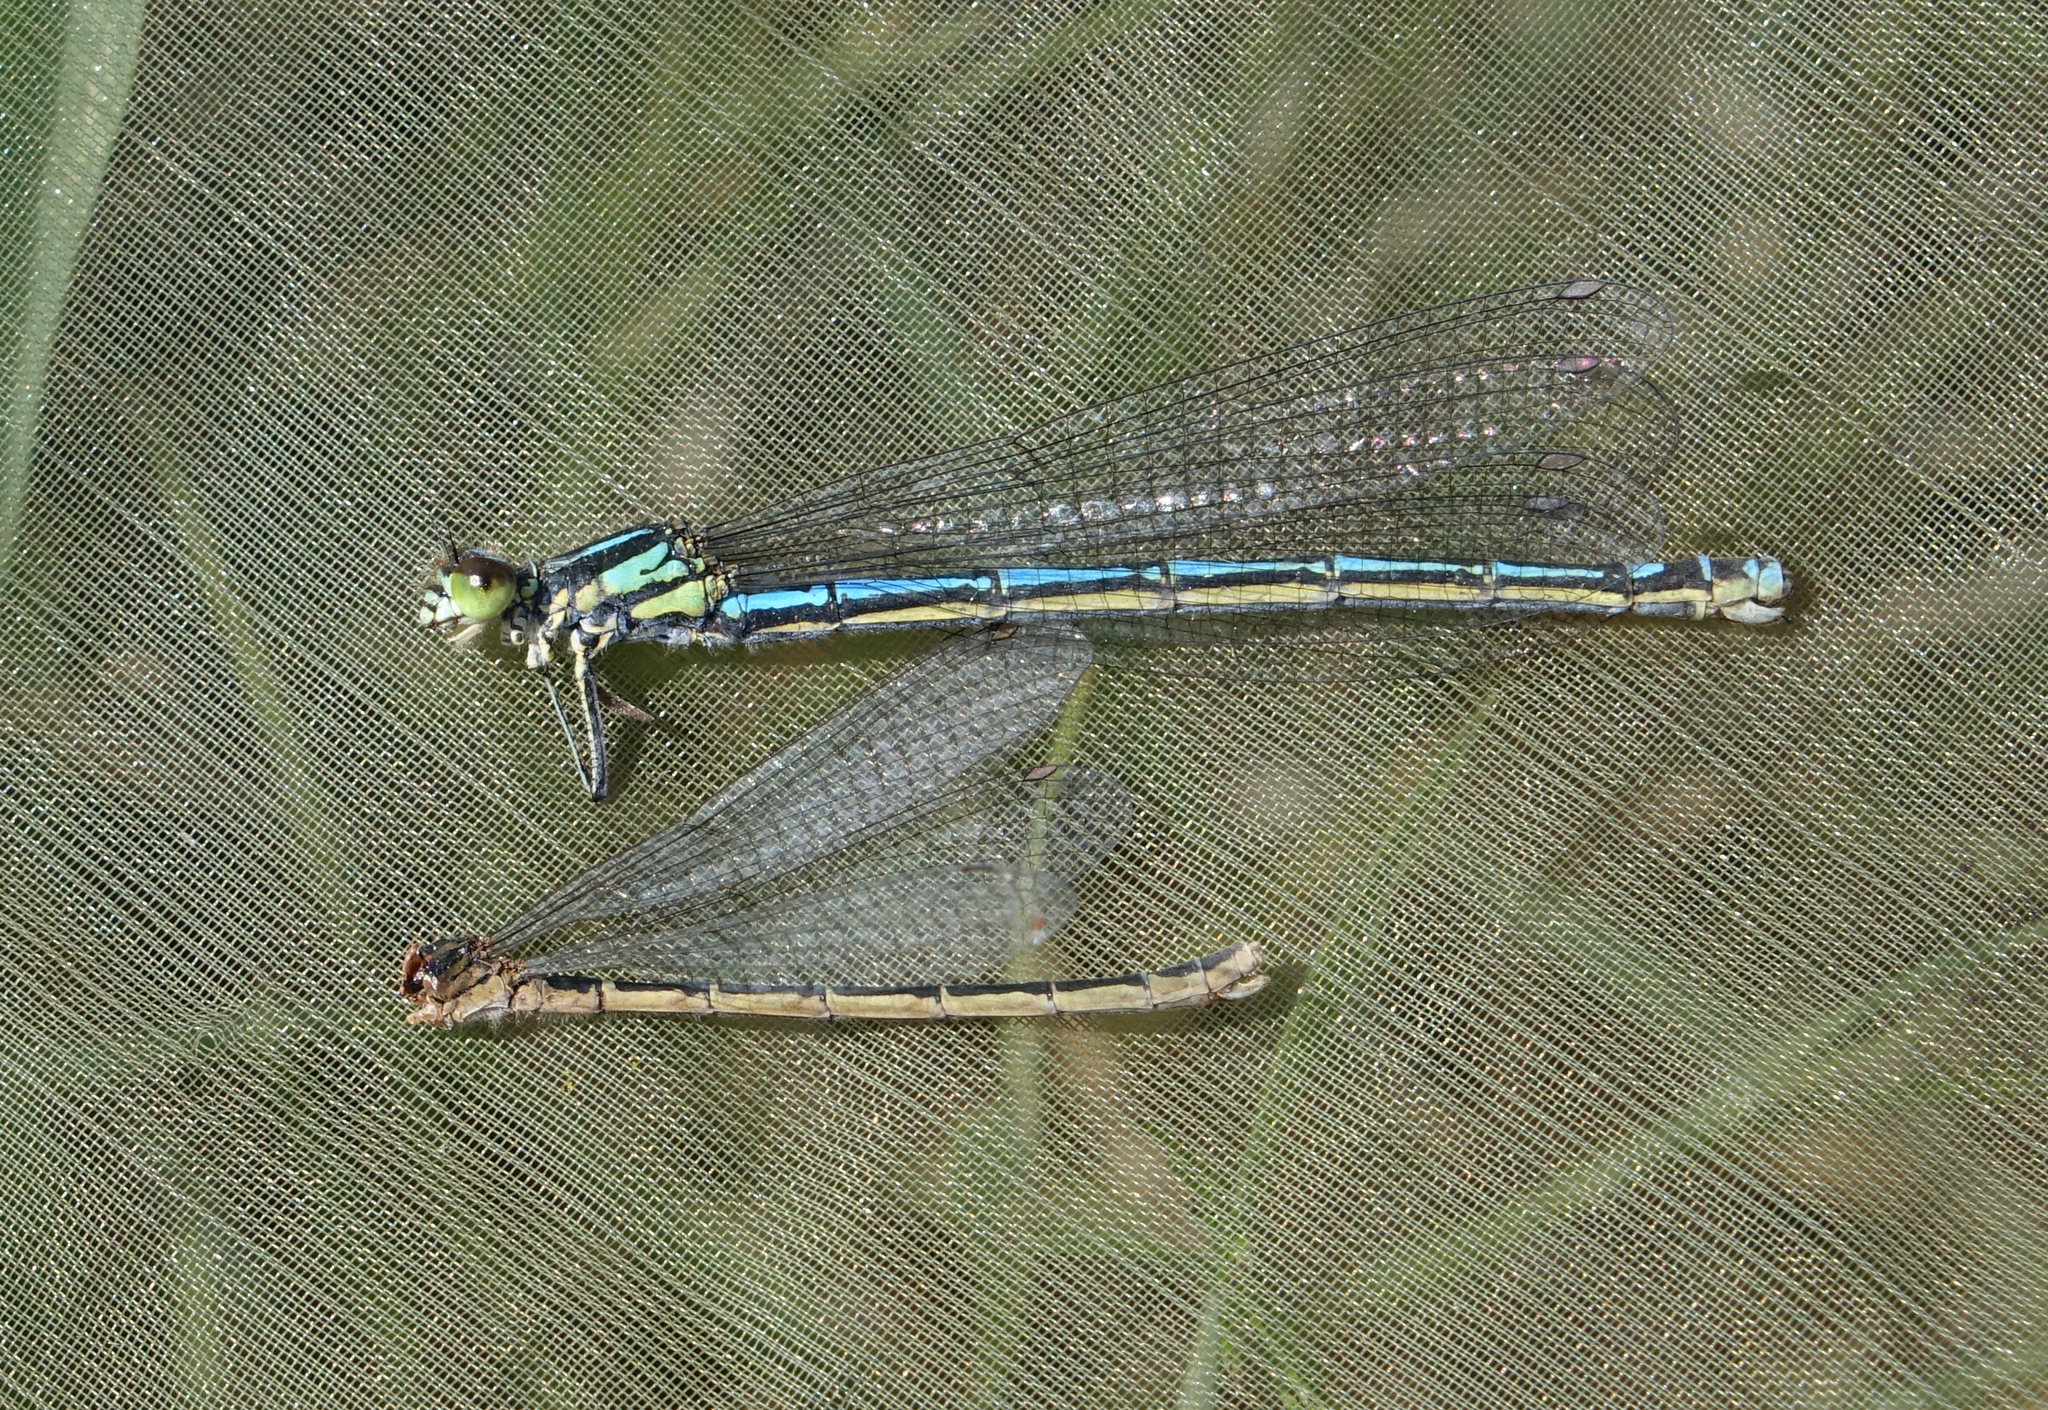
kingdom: Animalia
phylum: Arthropoda
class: Insecta
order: Odonata
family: Coenagrionidae
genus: Coenagrion
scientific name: Coenagrion hylas
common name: Frey's damselfly
